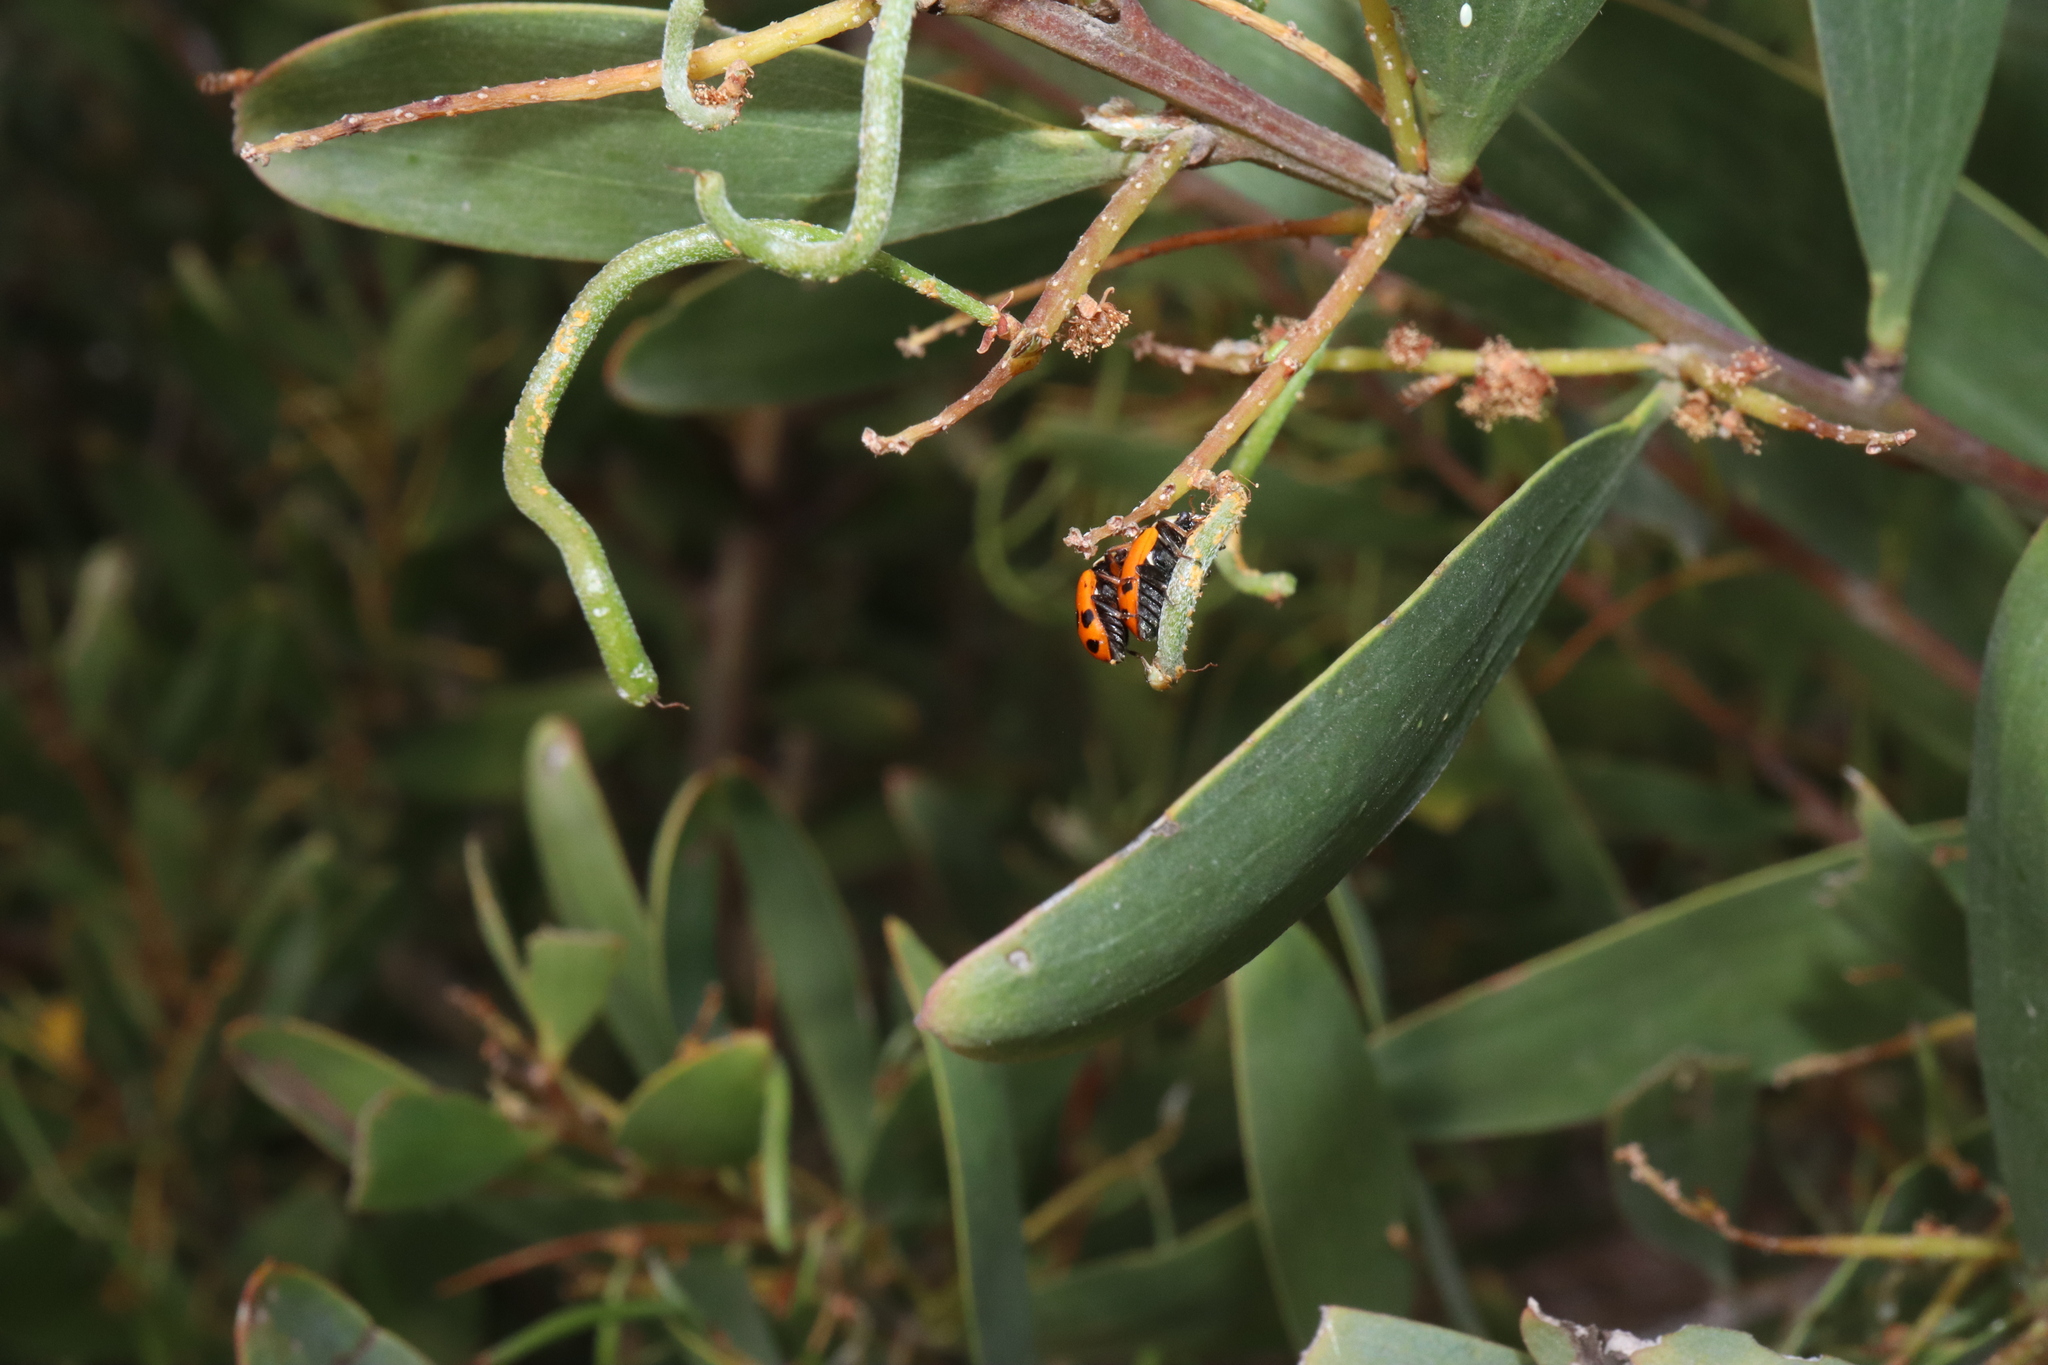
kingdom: Animalia
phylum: Arthropoda
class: Insecta
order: Coleoptera
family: Coccinellidae
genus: Hippodamia
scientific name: Hippodamia variegata
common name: Ladybird beetle
